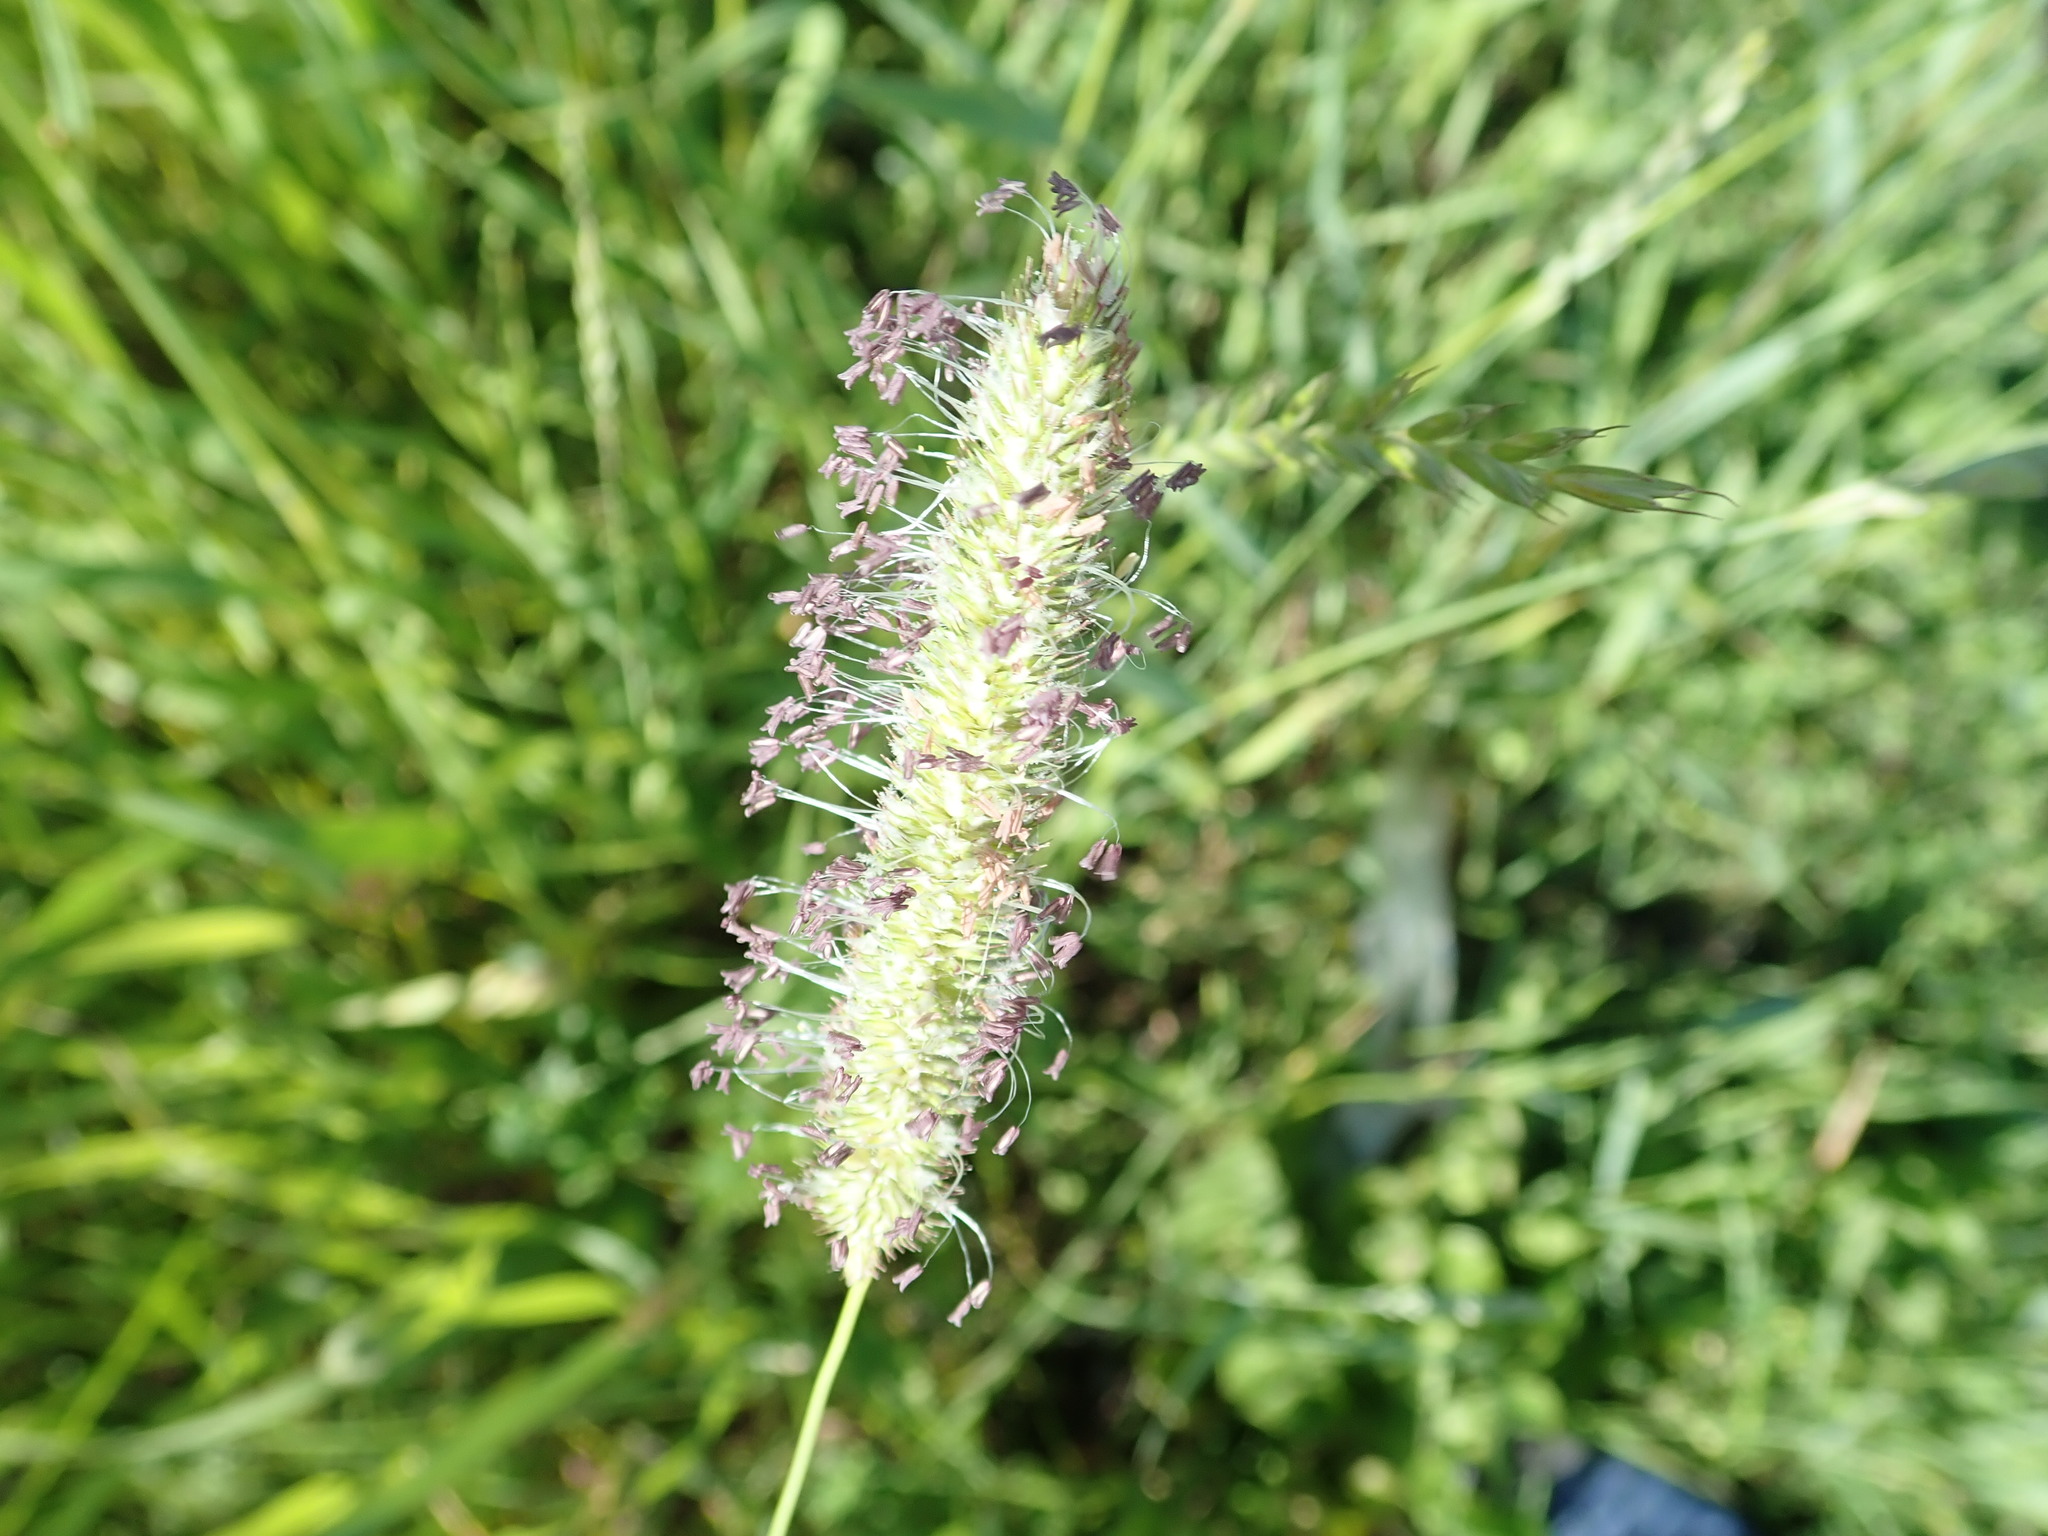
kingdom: Plantae
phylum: Tracheophyta
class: Liliopsida
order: Poales
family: Poaceae
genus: Phleum
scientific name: Phleum pratense
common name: Timothy grass
